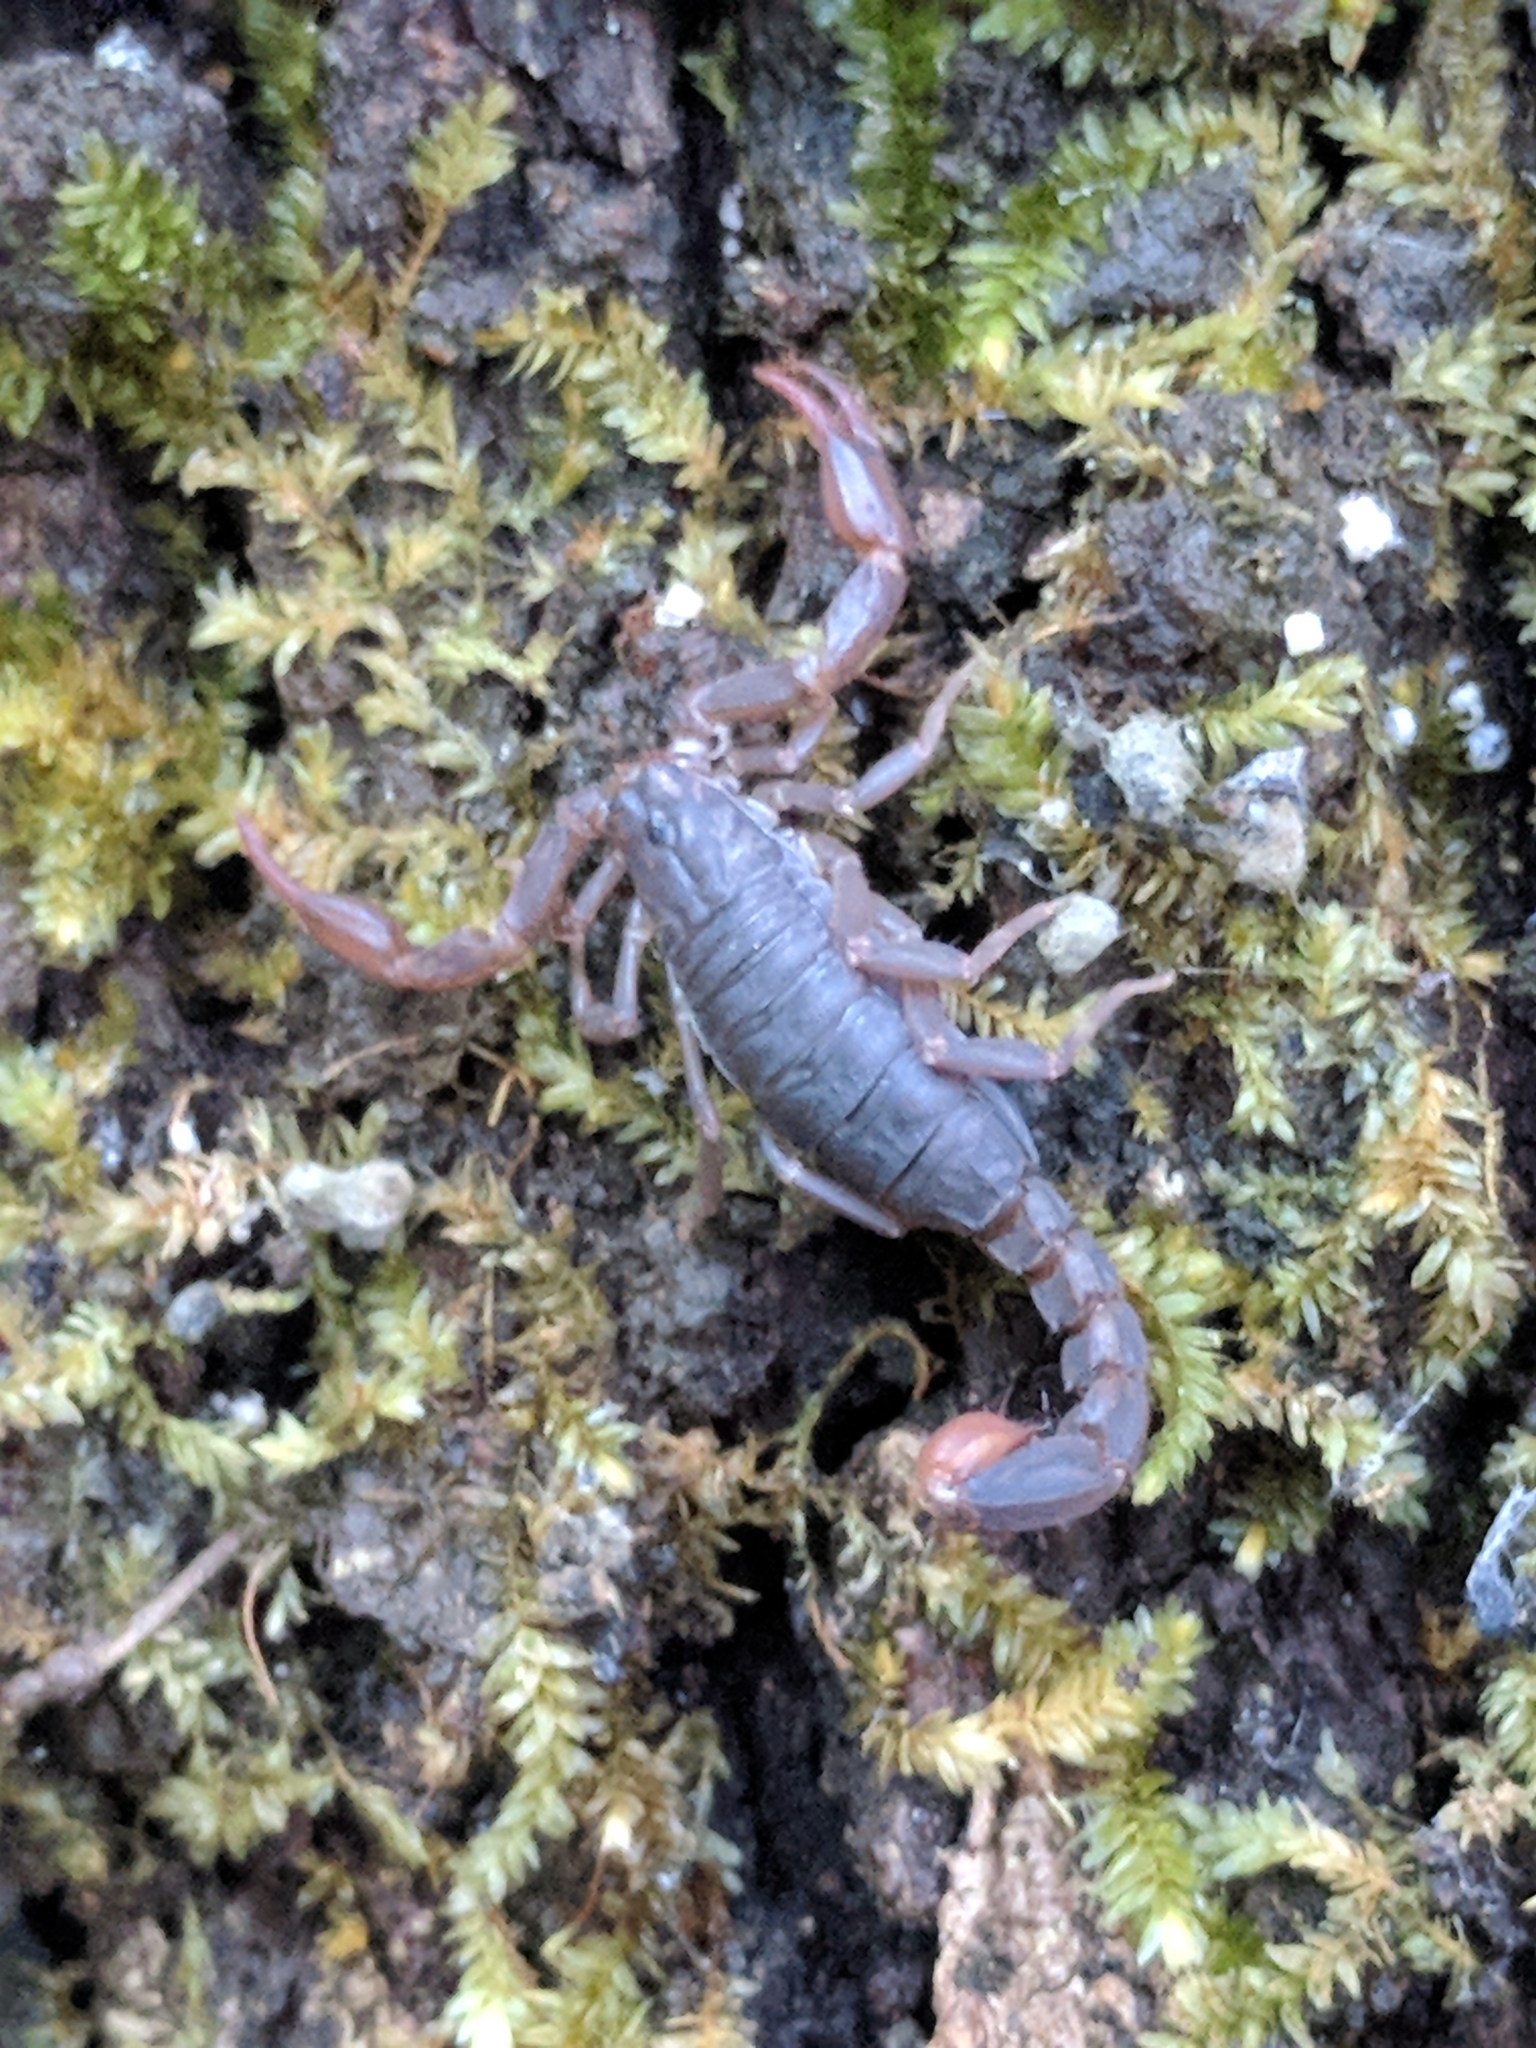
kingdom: Animalia
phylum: Arthropoda
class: Arachnida
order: Scorpiones
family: Vaejovidae
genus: Pseudouroctonus
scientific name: Pseudouroctonus reddelli
